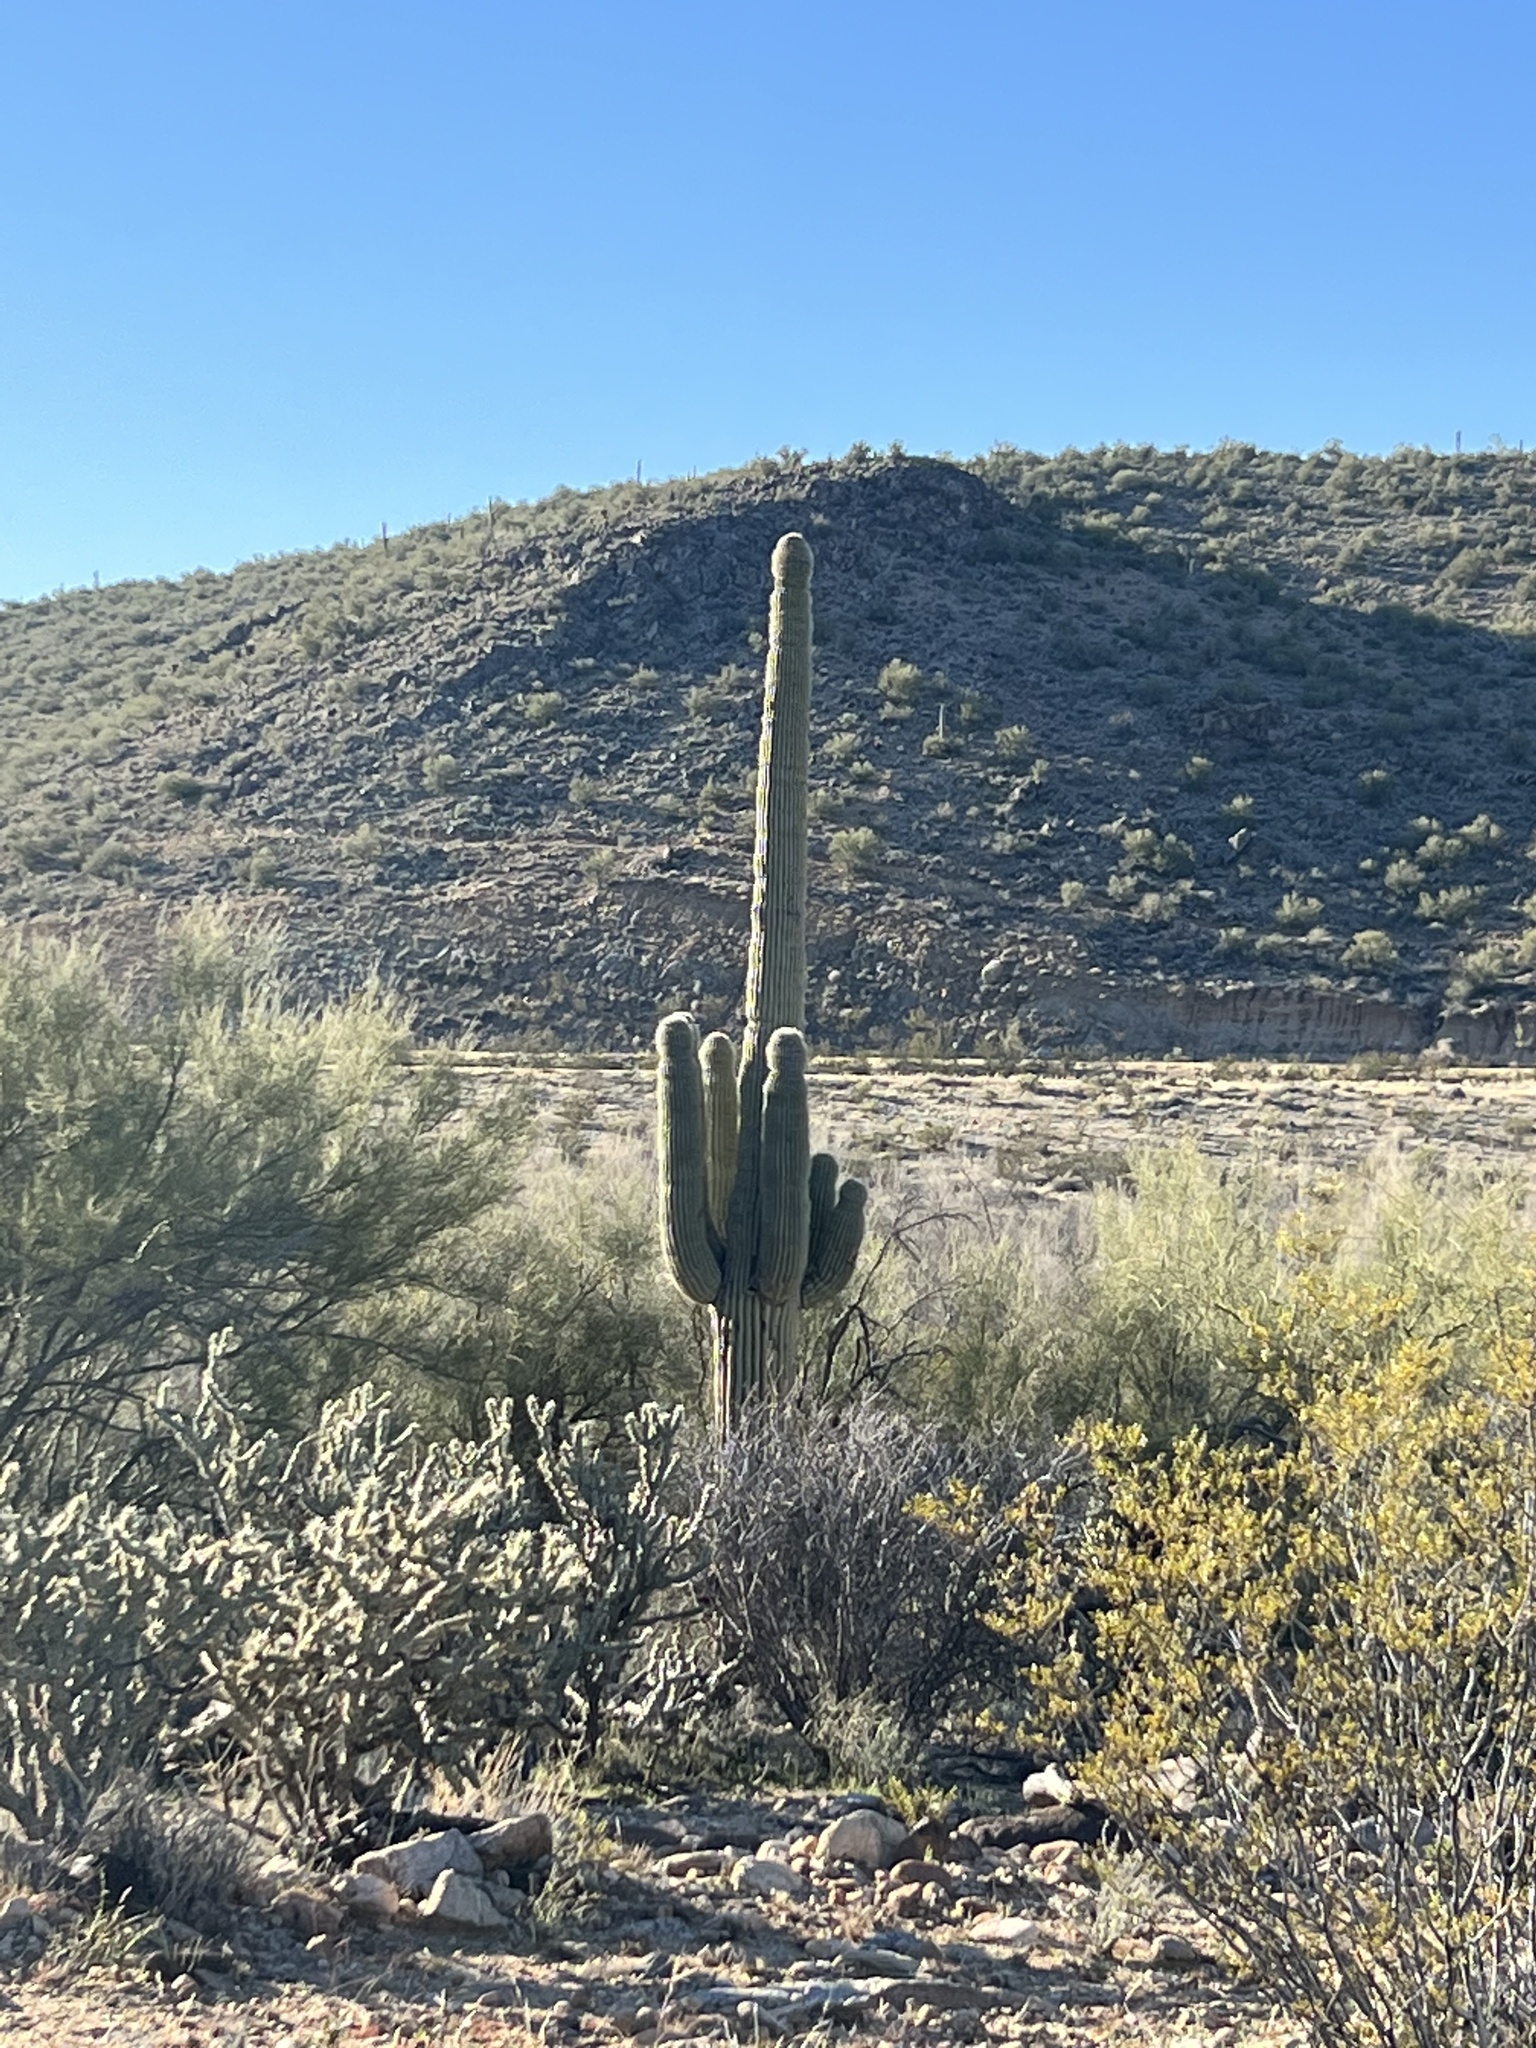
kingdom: Plantae
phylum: Tracheophyta
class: Magnoliopsida
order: Caryophyllales
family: Cactaceae
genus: Carnegiea
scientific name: Carnegiea gigantea
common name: Saguaro
